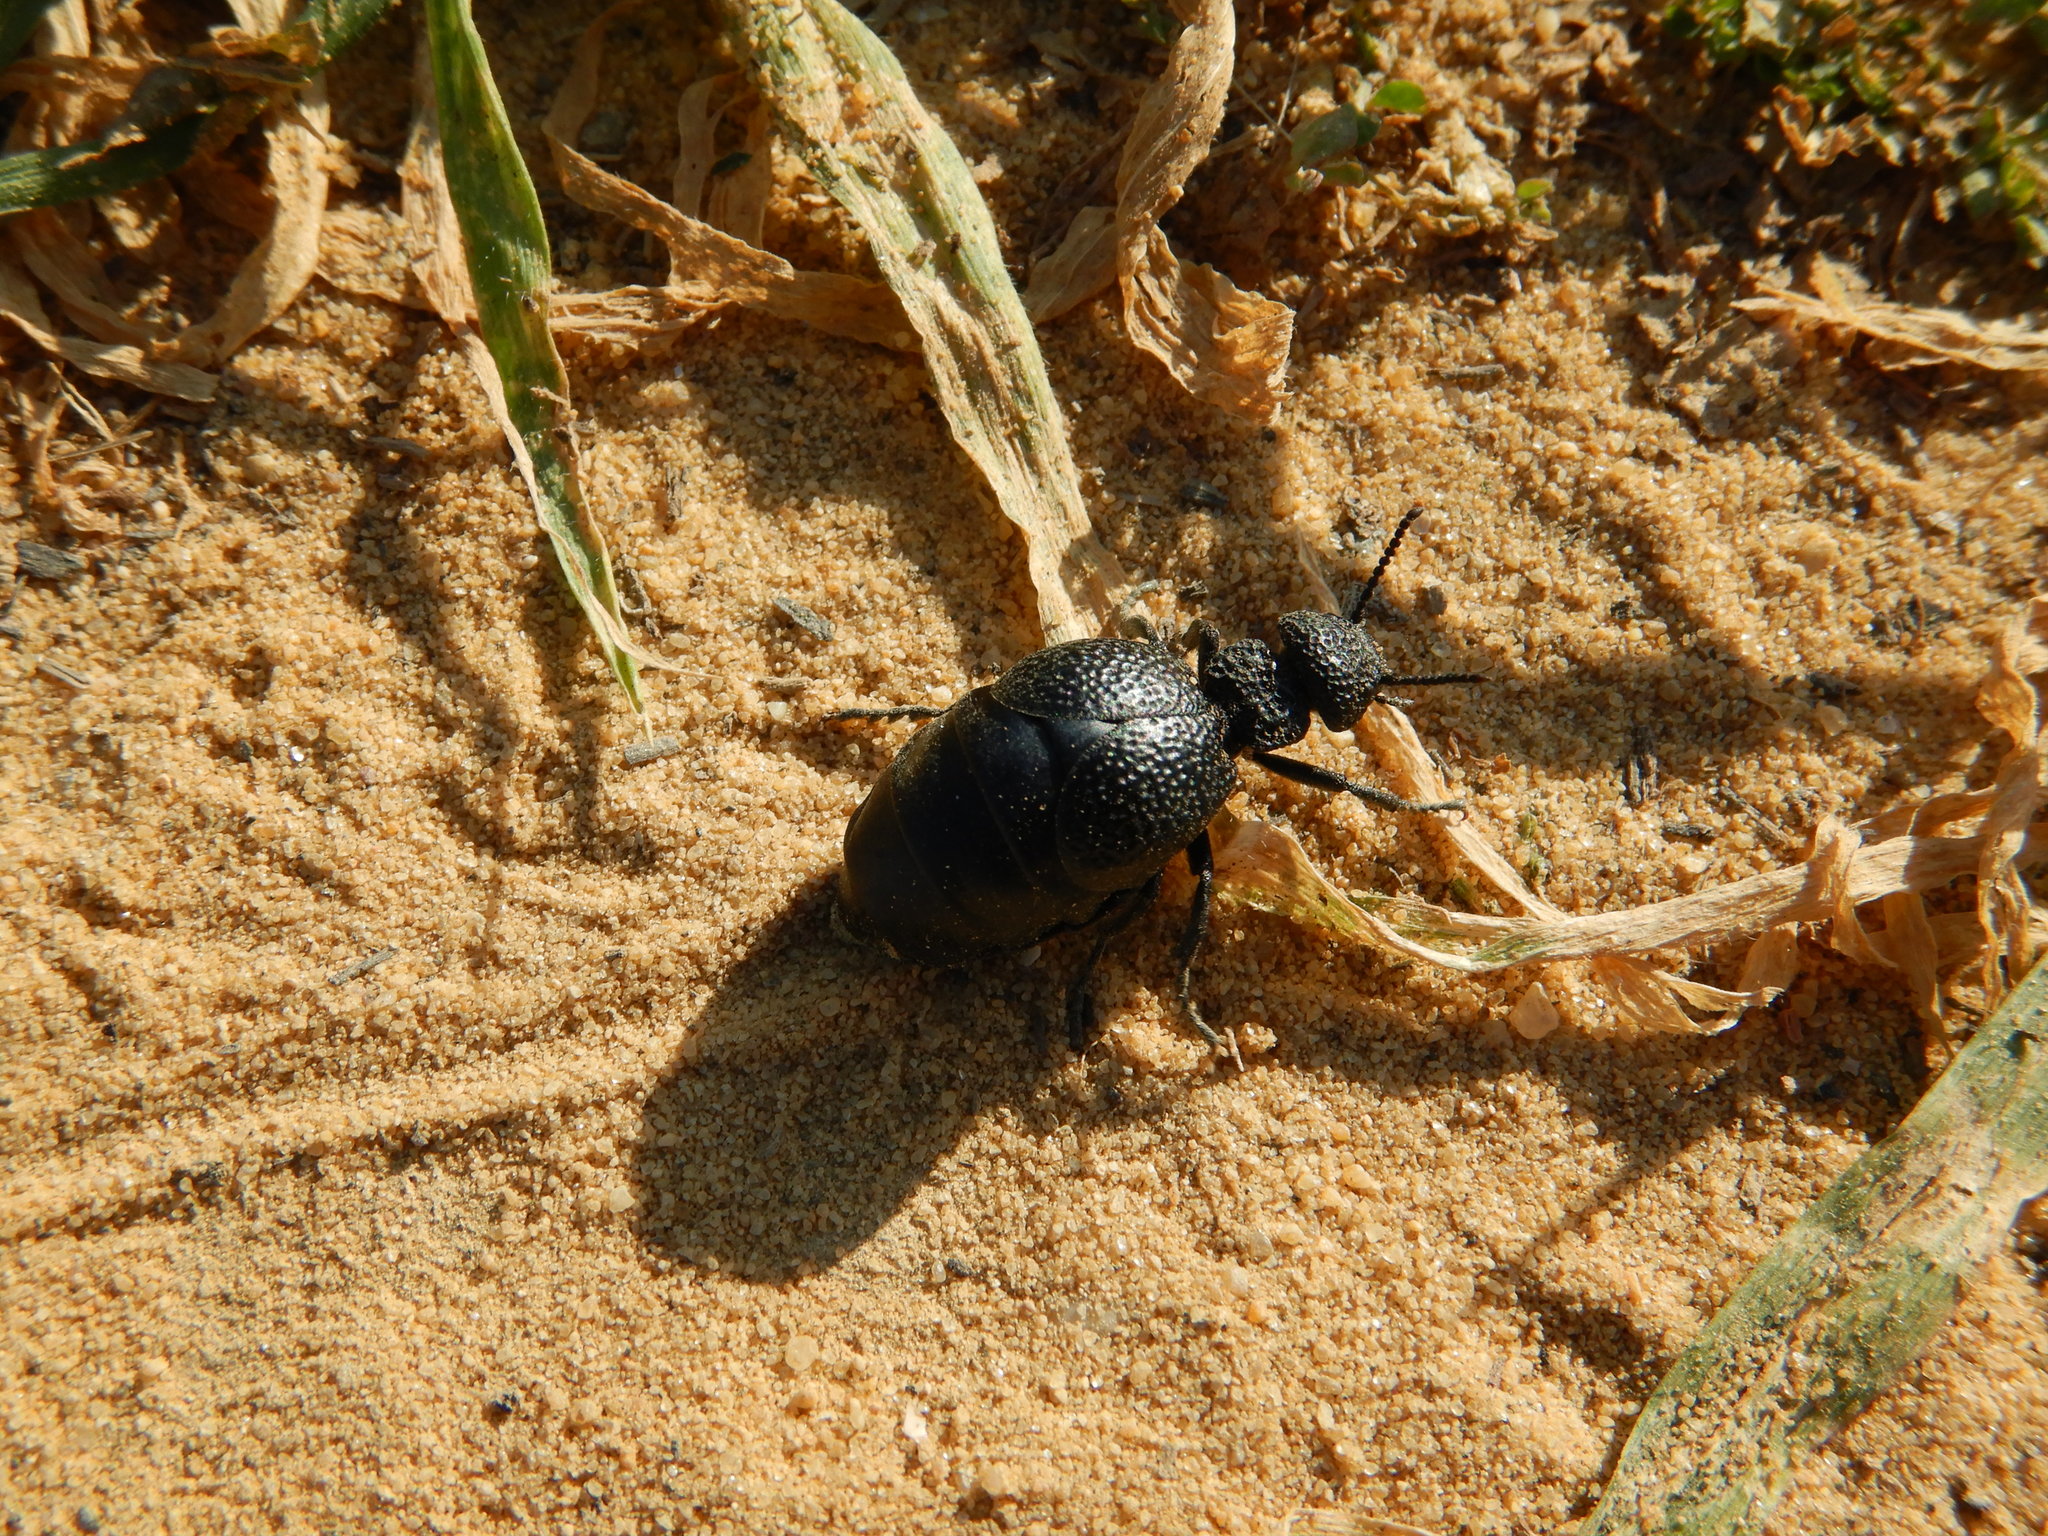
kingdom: Animalia
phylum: Arthropoda
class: Insecta
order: Coleoptera
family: Meloidae
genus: Meloe
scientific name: Meloe tuccius
